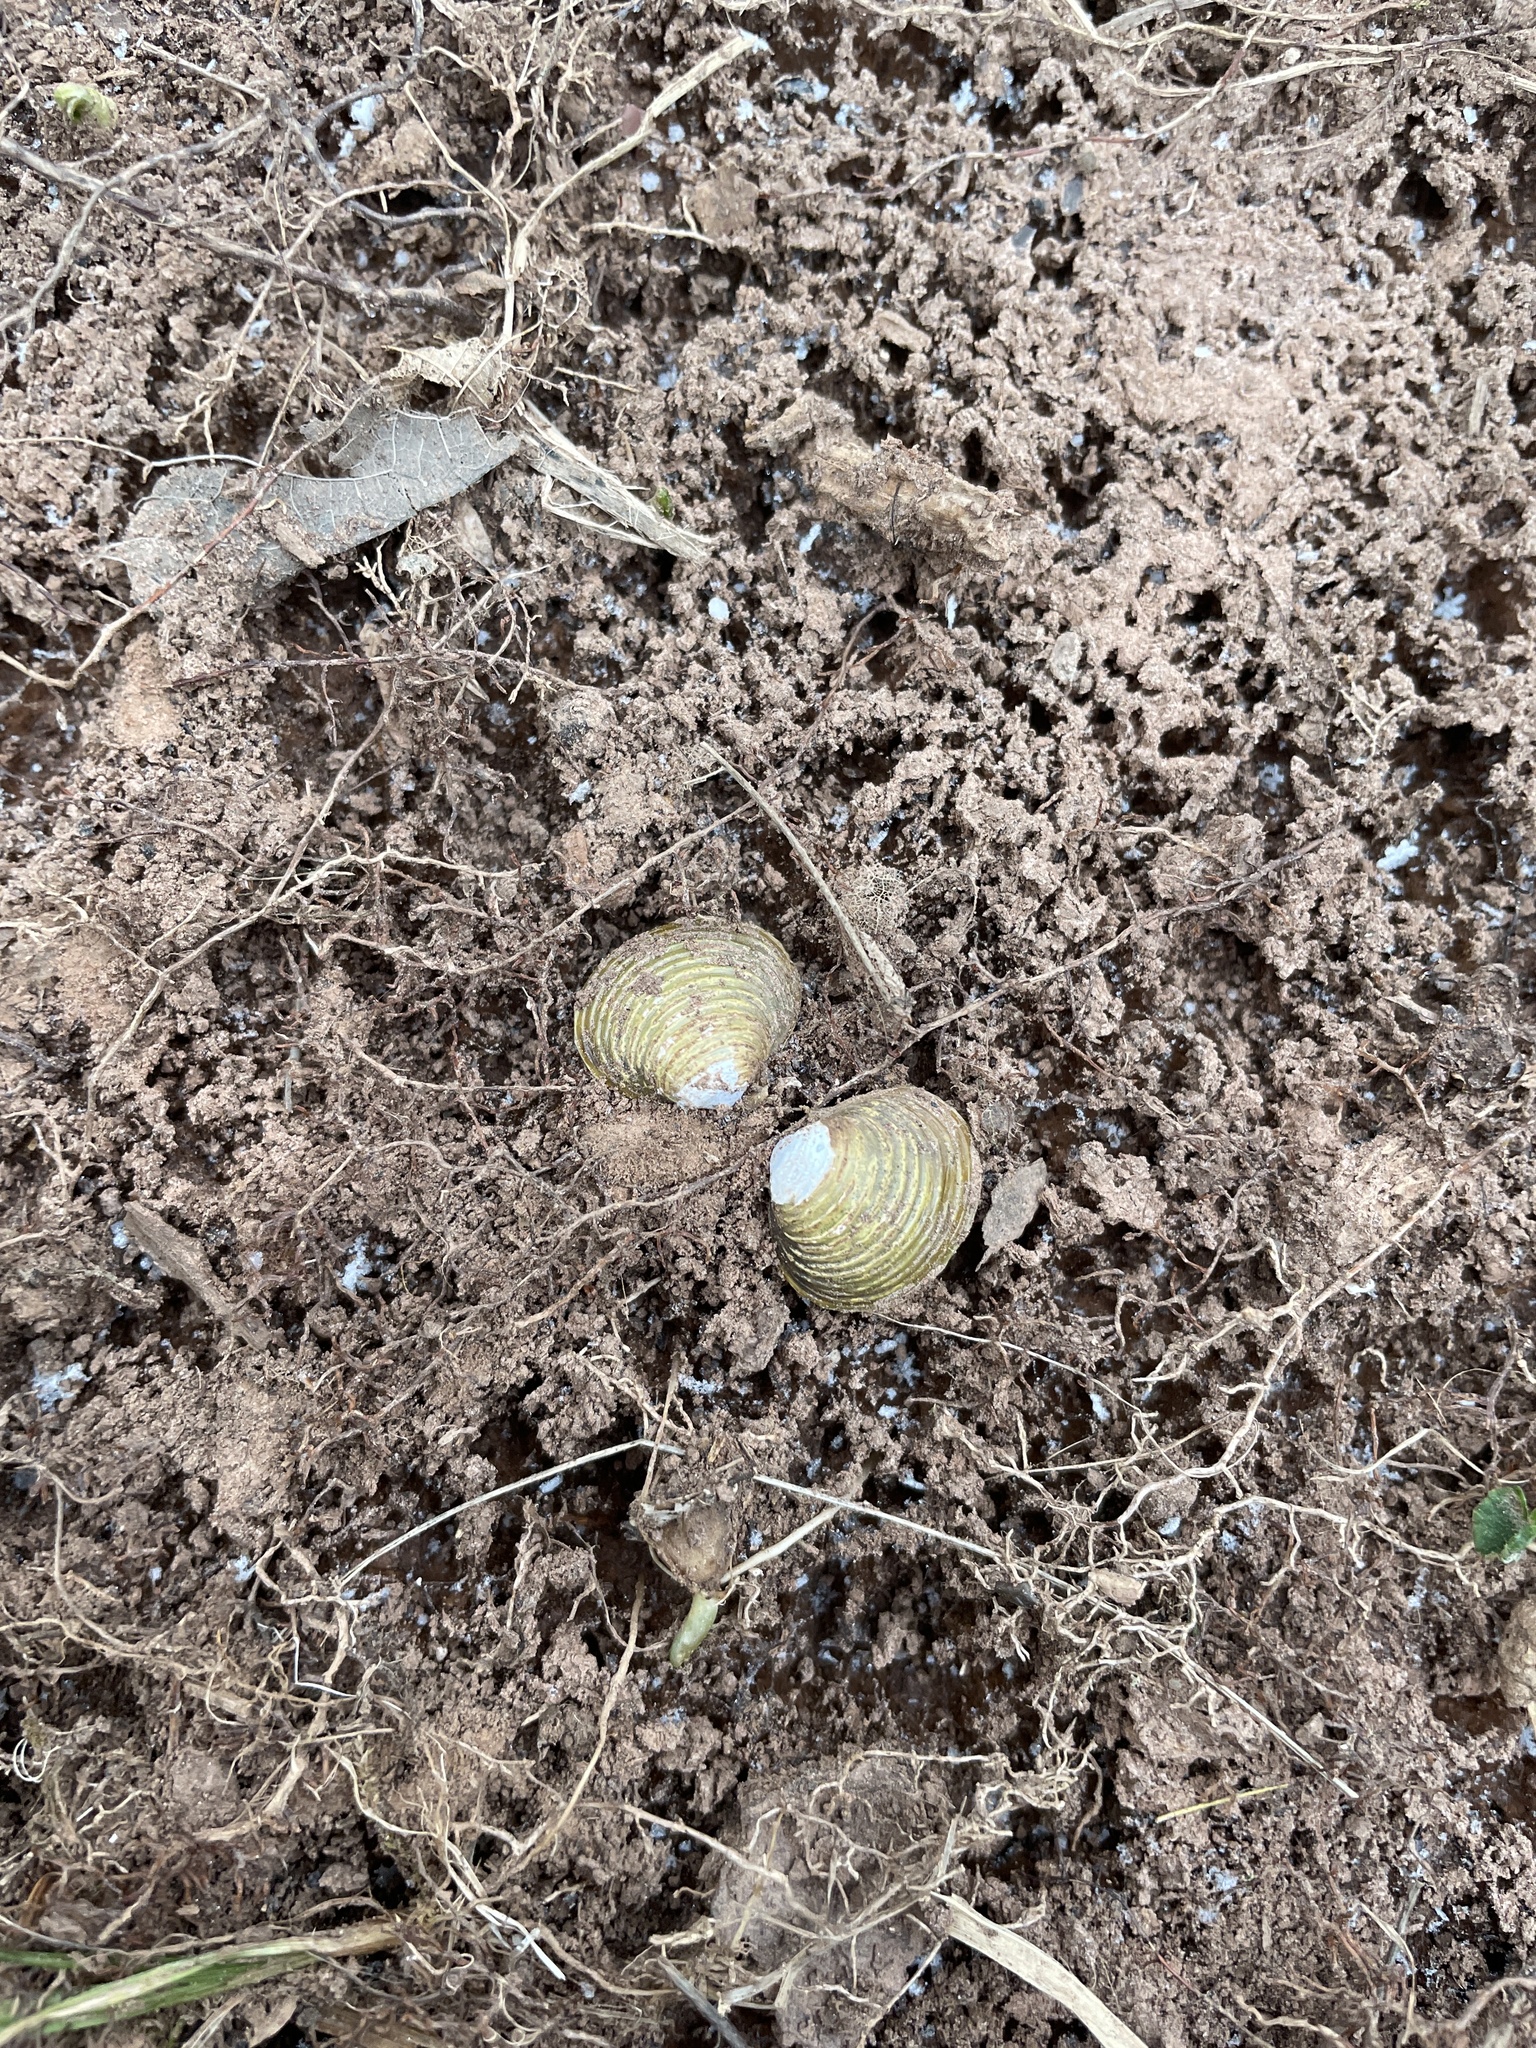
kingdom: Animalia
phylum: Mollusca
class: Bivalvia
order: Venerida
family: Cyrenidae
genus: Corbicula
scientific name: Corbicula fluminea
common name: Asian clam
